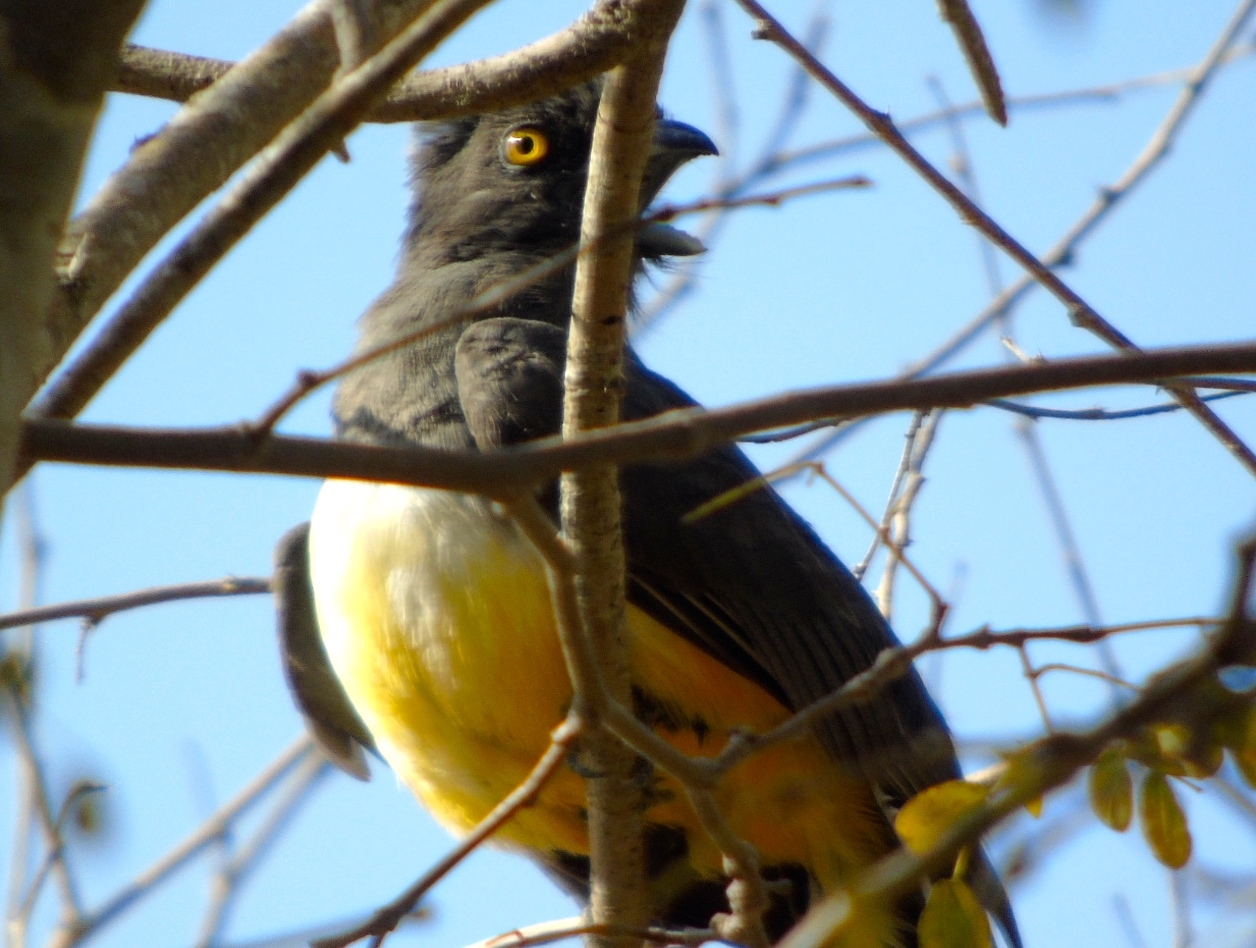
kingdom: Animalia
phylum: Chordata
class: Aves
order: Trogoniformes
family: Trogonidae
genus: Trogon
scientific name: Trogon citreolus
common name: Citreoline trogon
